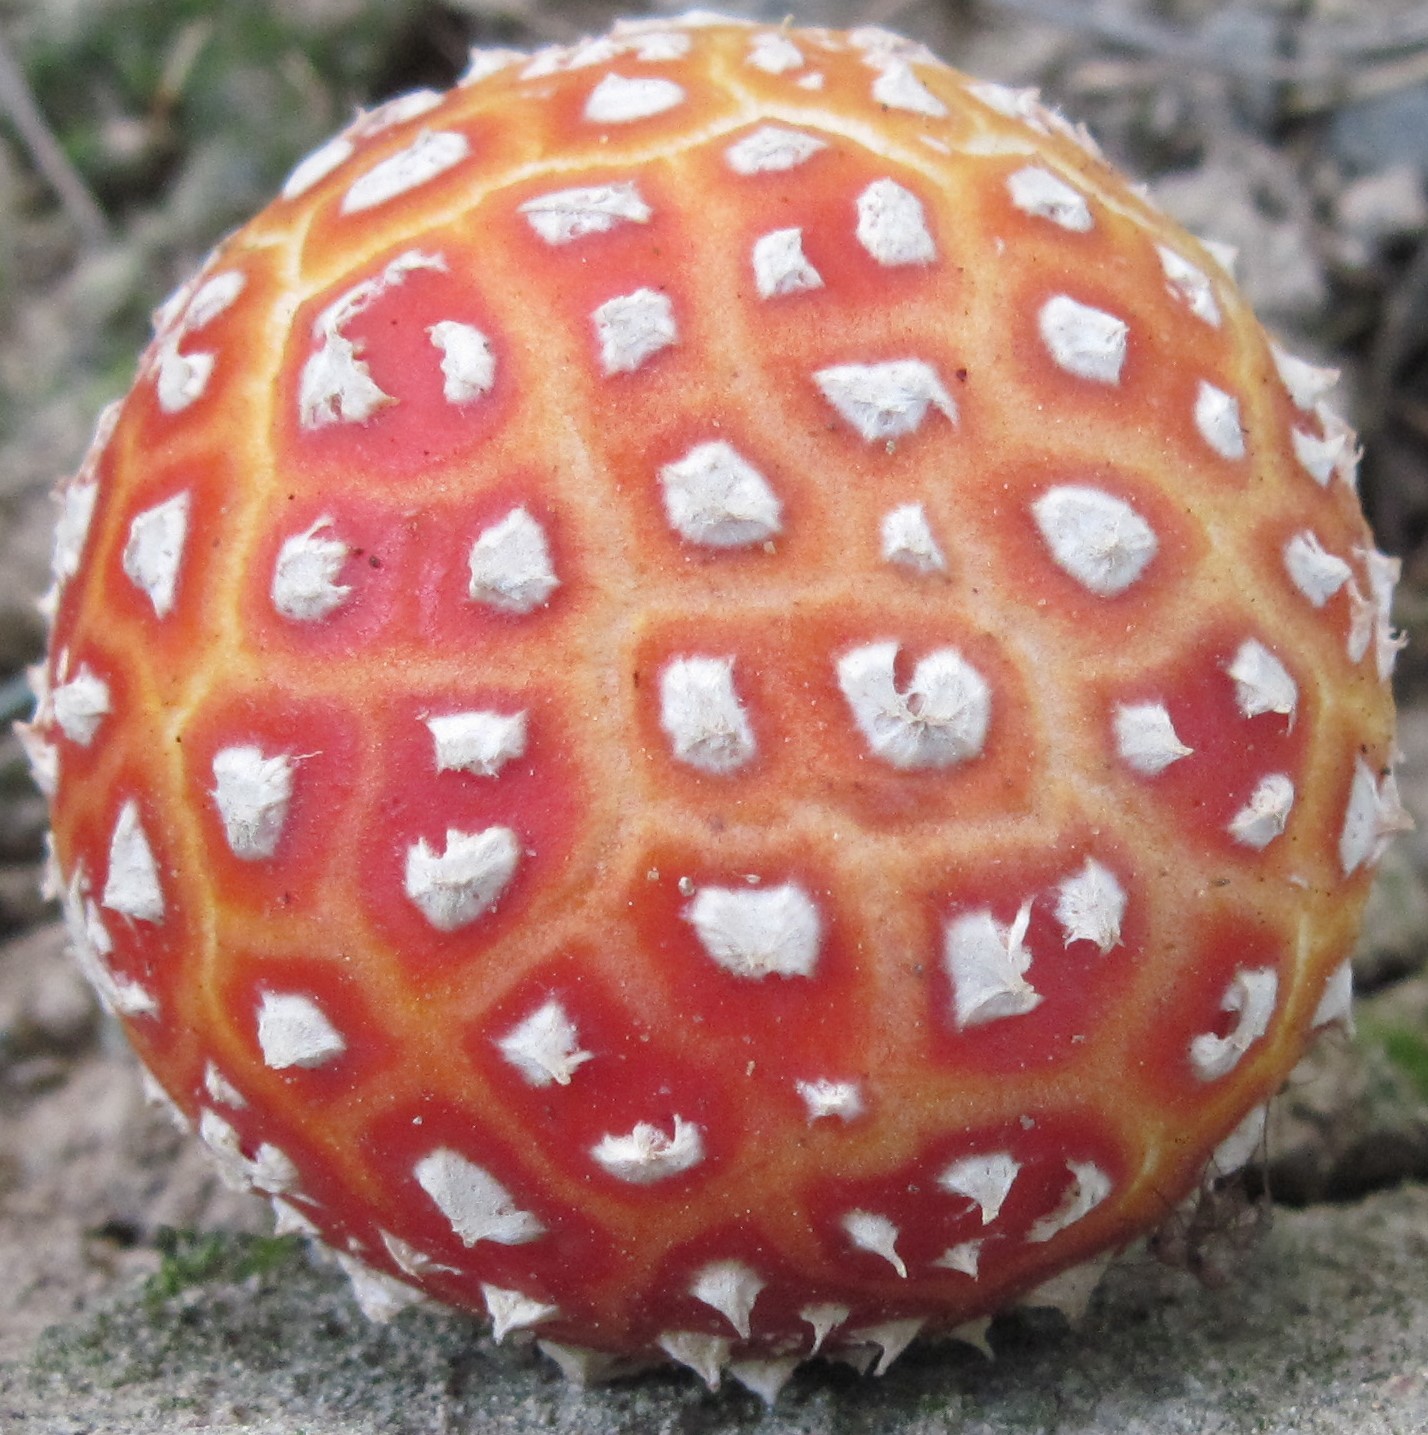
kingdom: Fungi
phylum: Basidiomycota
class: Agaricomycetes
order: Agaricales
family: Amanitaceae
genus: Amanita
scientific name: Amanita muscaria
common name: Fly agaric
